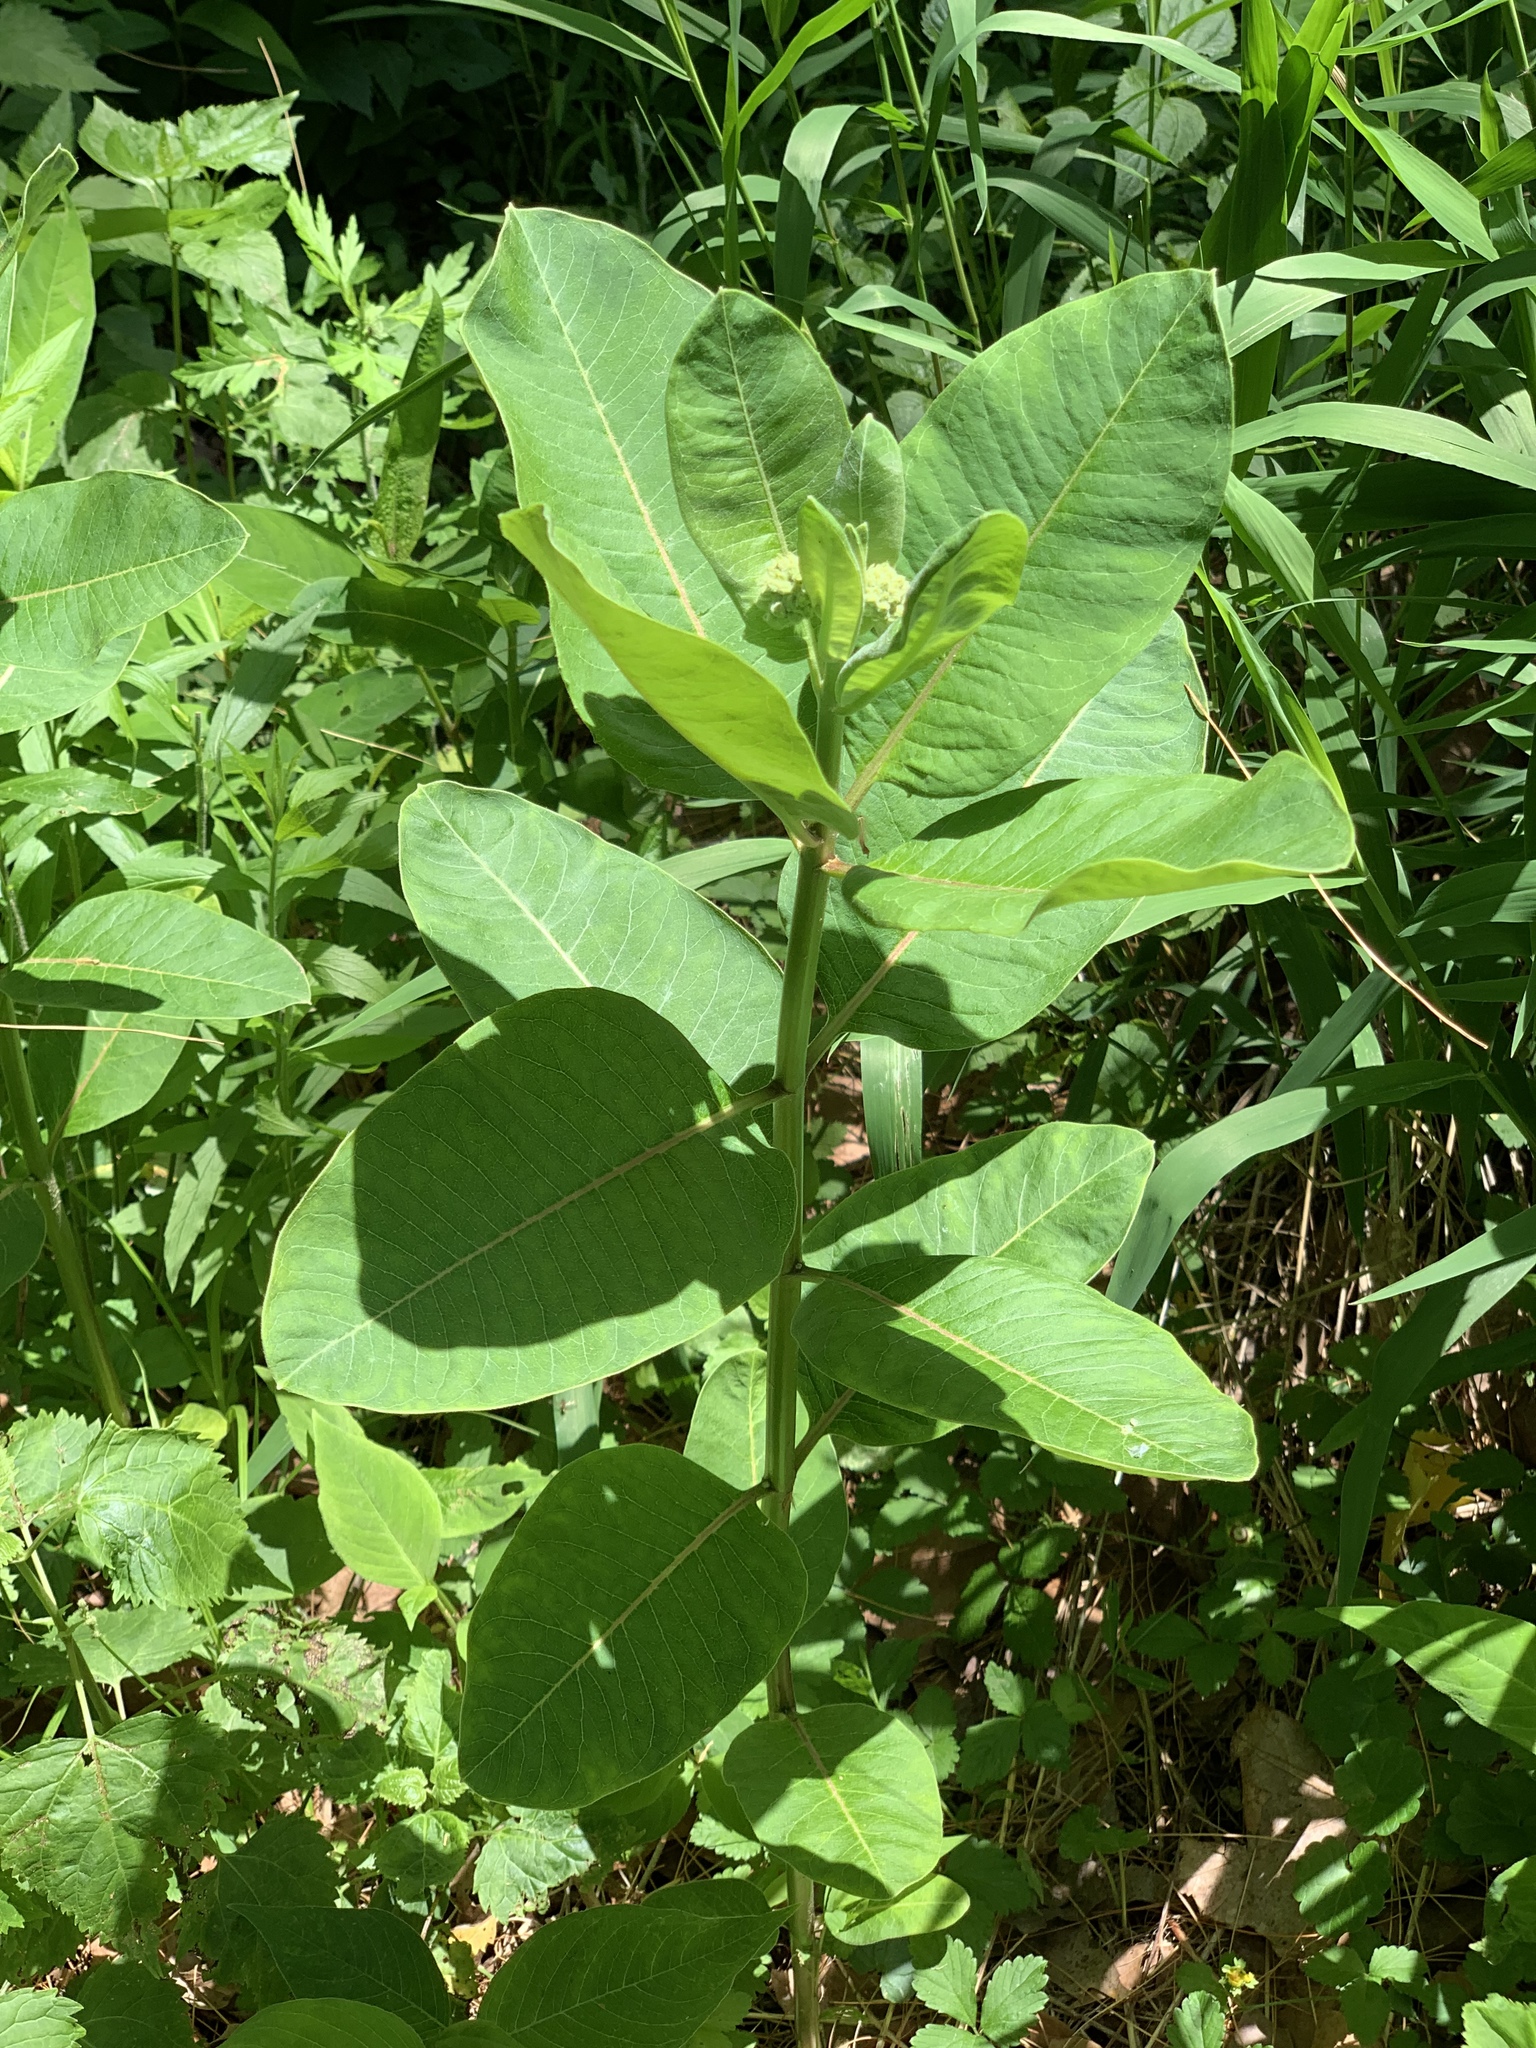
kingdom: Plantae
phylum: Tracheophyta
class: Magnoliopsida
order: Gentianales
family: Apocynaceae
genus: Asclepias
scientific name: Asclepias syriaca
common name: Common milkweed
